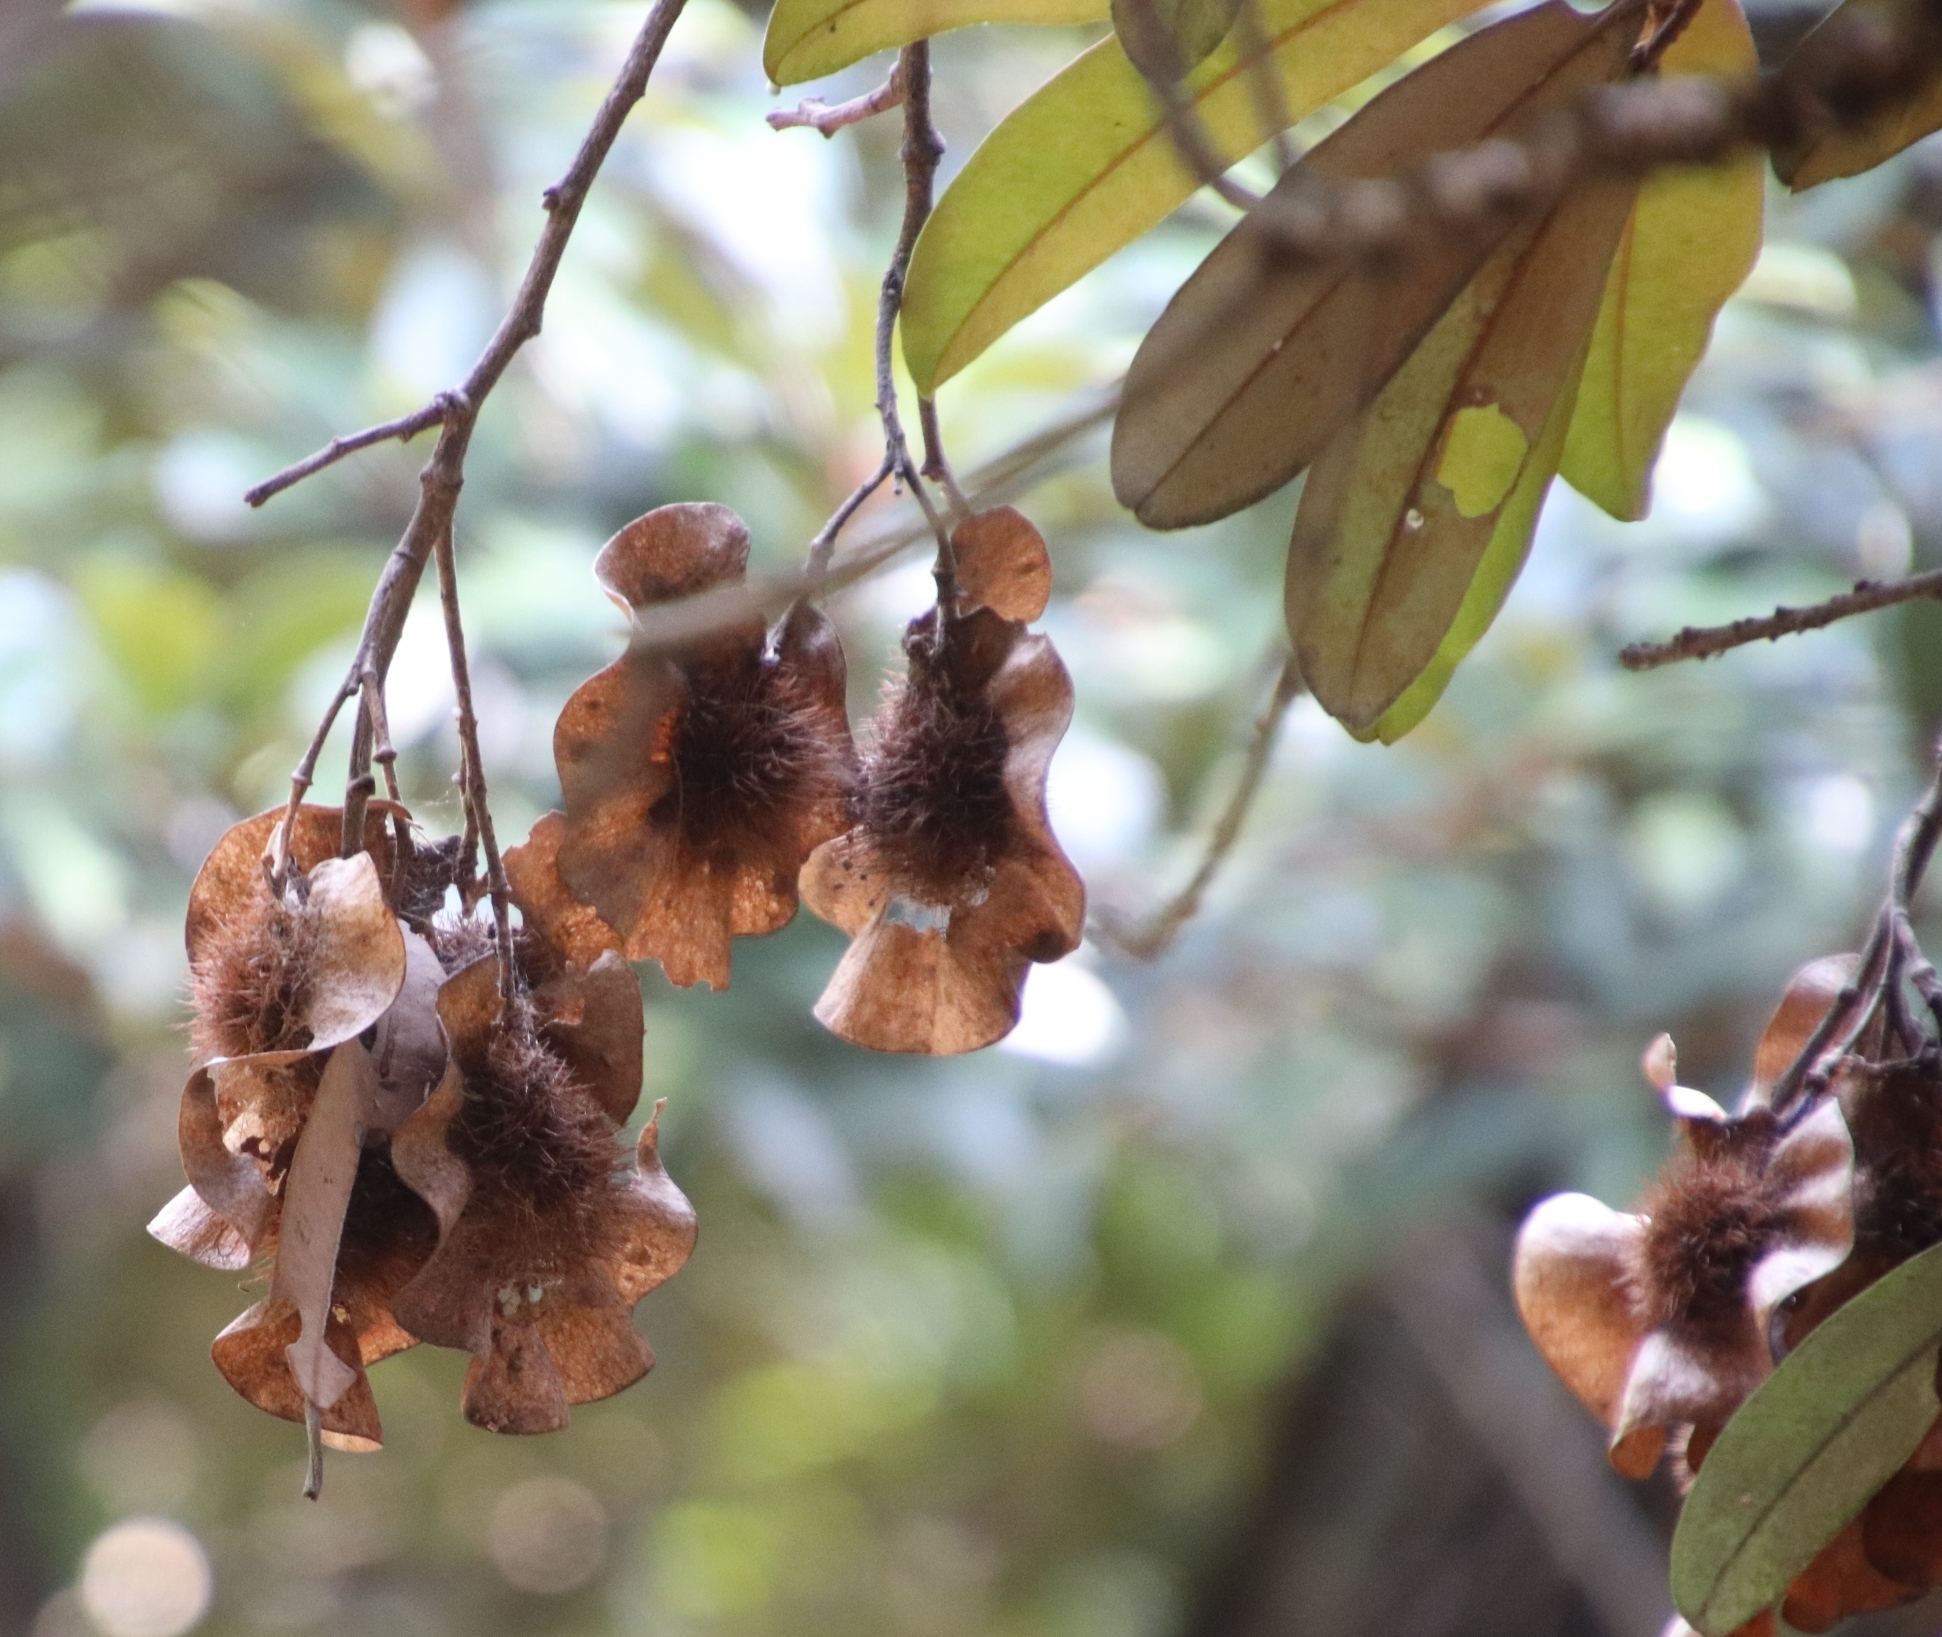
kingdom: Plantae
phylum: Tracheophyta
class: Magnoliopsida
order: Fabales
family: Fabaceae
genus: Pterocarpus
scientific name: Pterocarpus angolensis
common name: Bloodwood tree
